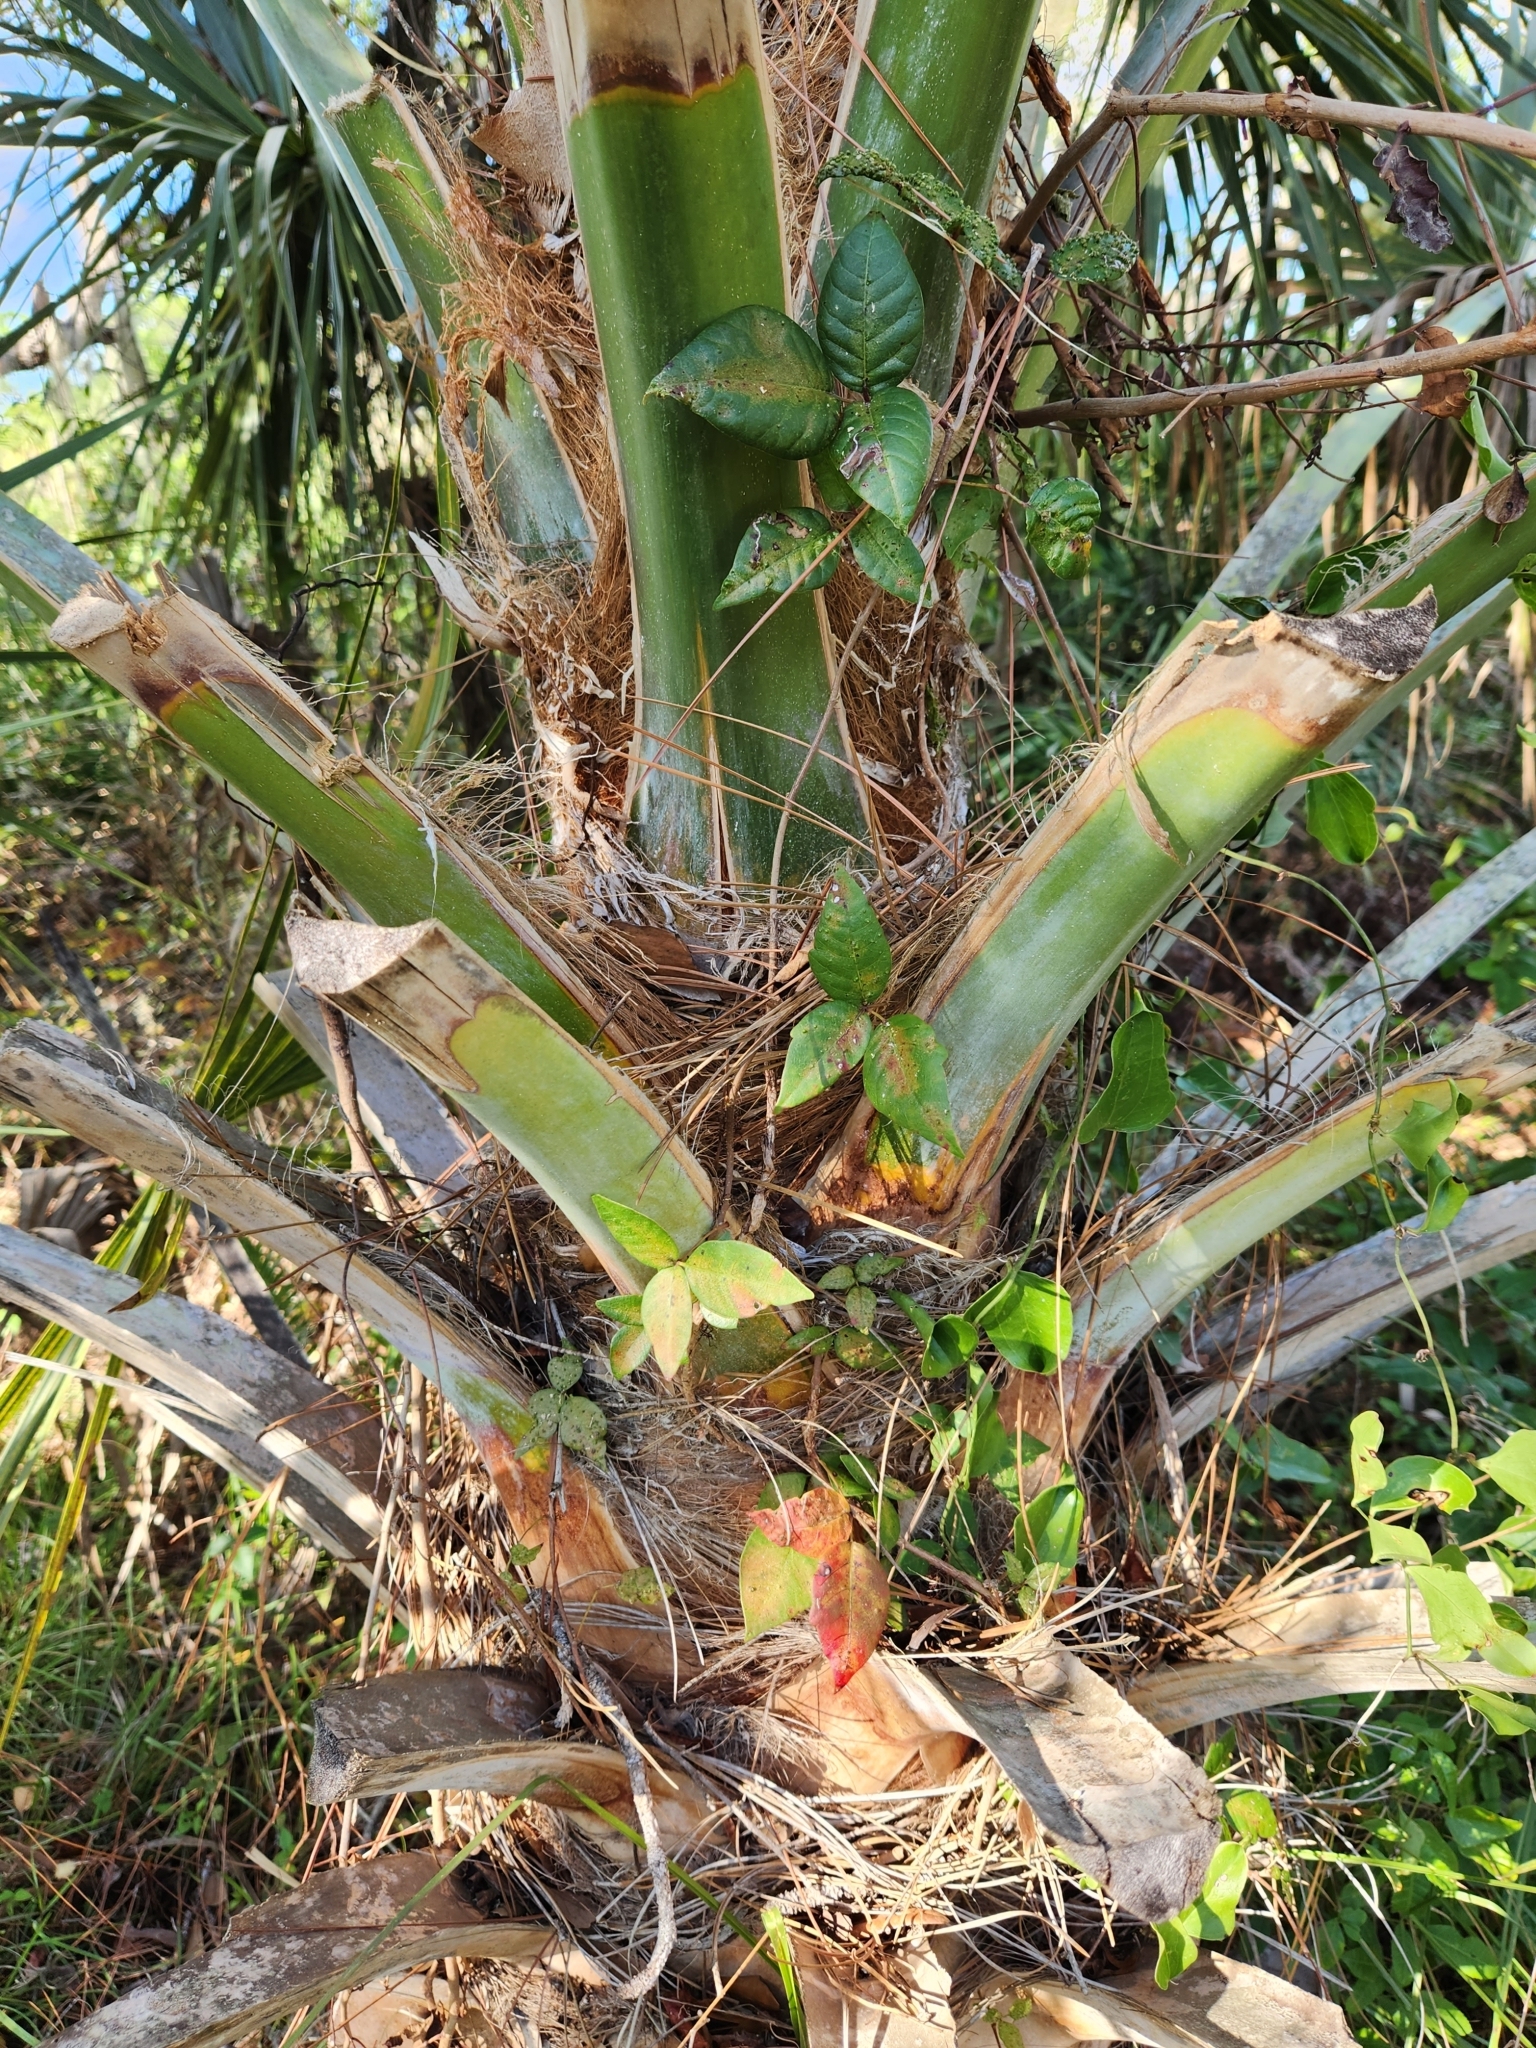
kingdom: Plantae
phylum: Tracheophyta
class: Magnoliopsida
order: Sapindales
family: Anacardiaceae
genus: Toxicodendron
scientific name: Toxicodendron radicans
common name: Poison ivy
